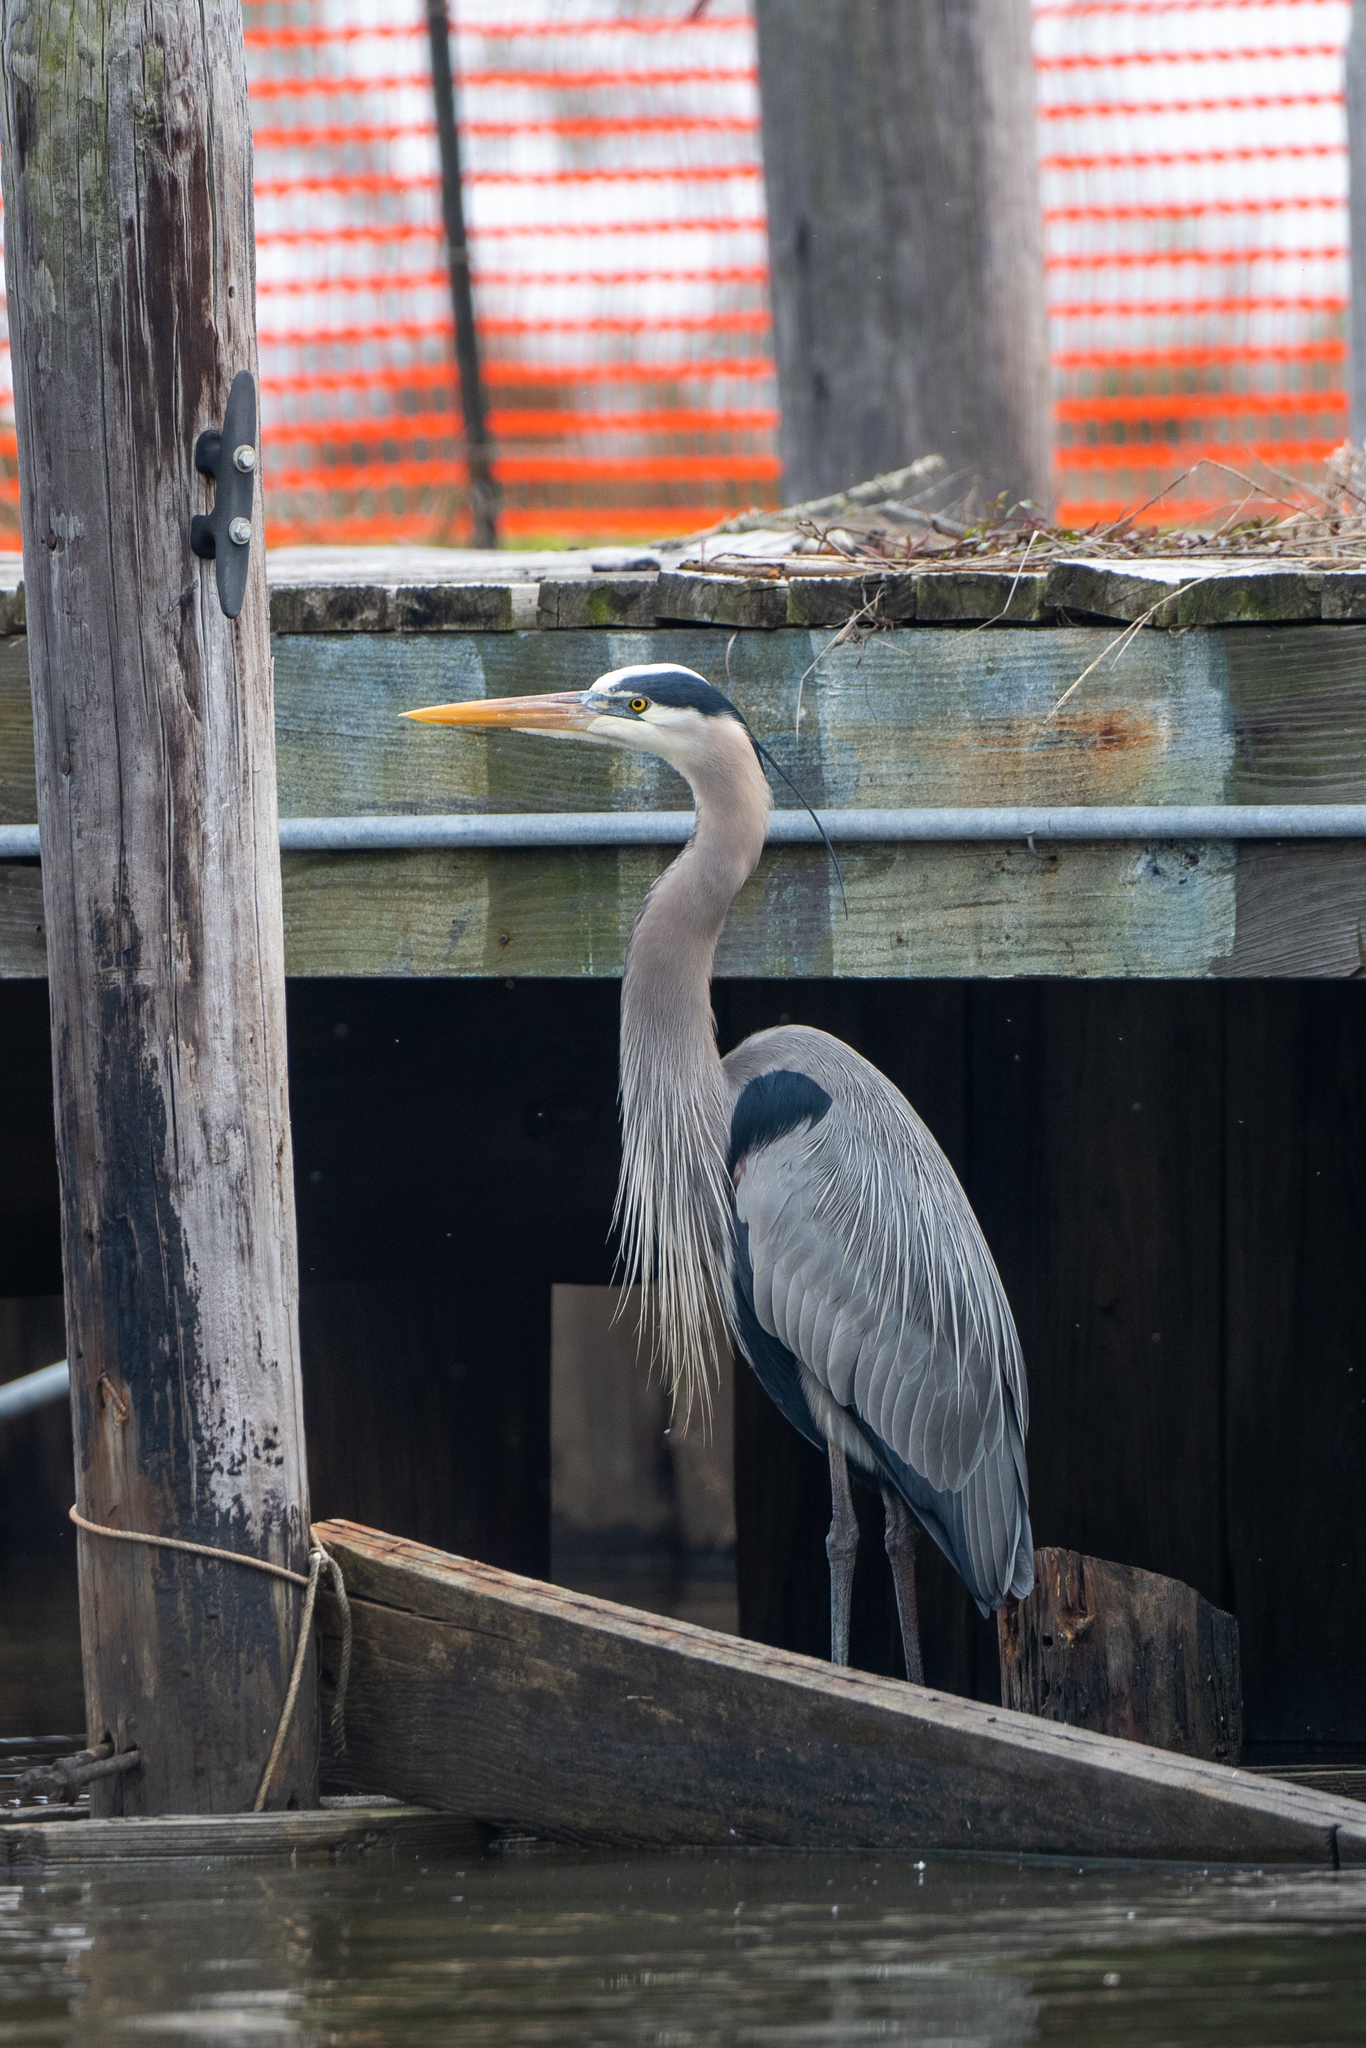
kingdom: Animalia
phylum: Chordata
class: Aves
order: Pelecaniformes
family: Ardeidae
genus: Ardea
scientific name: Ardea herodias
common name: Great blue heron
